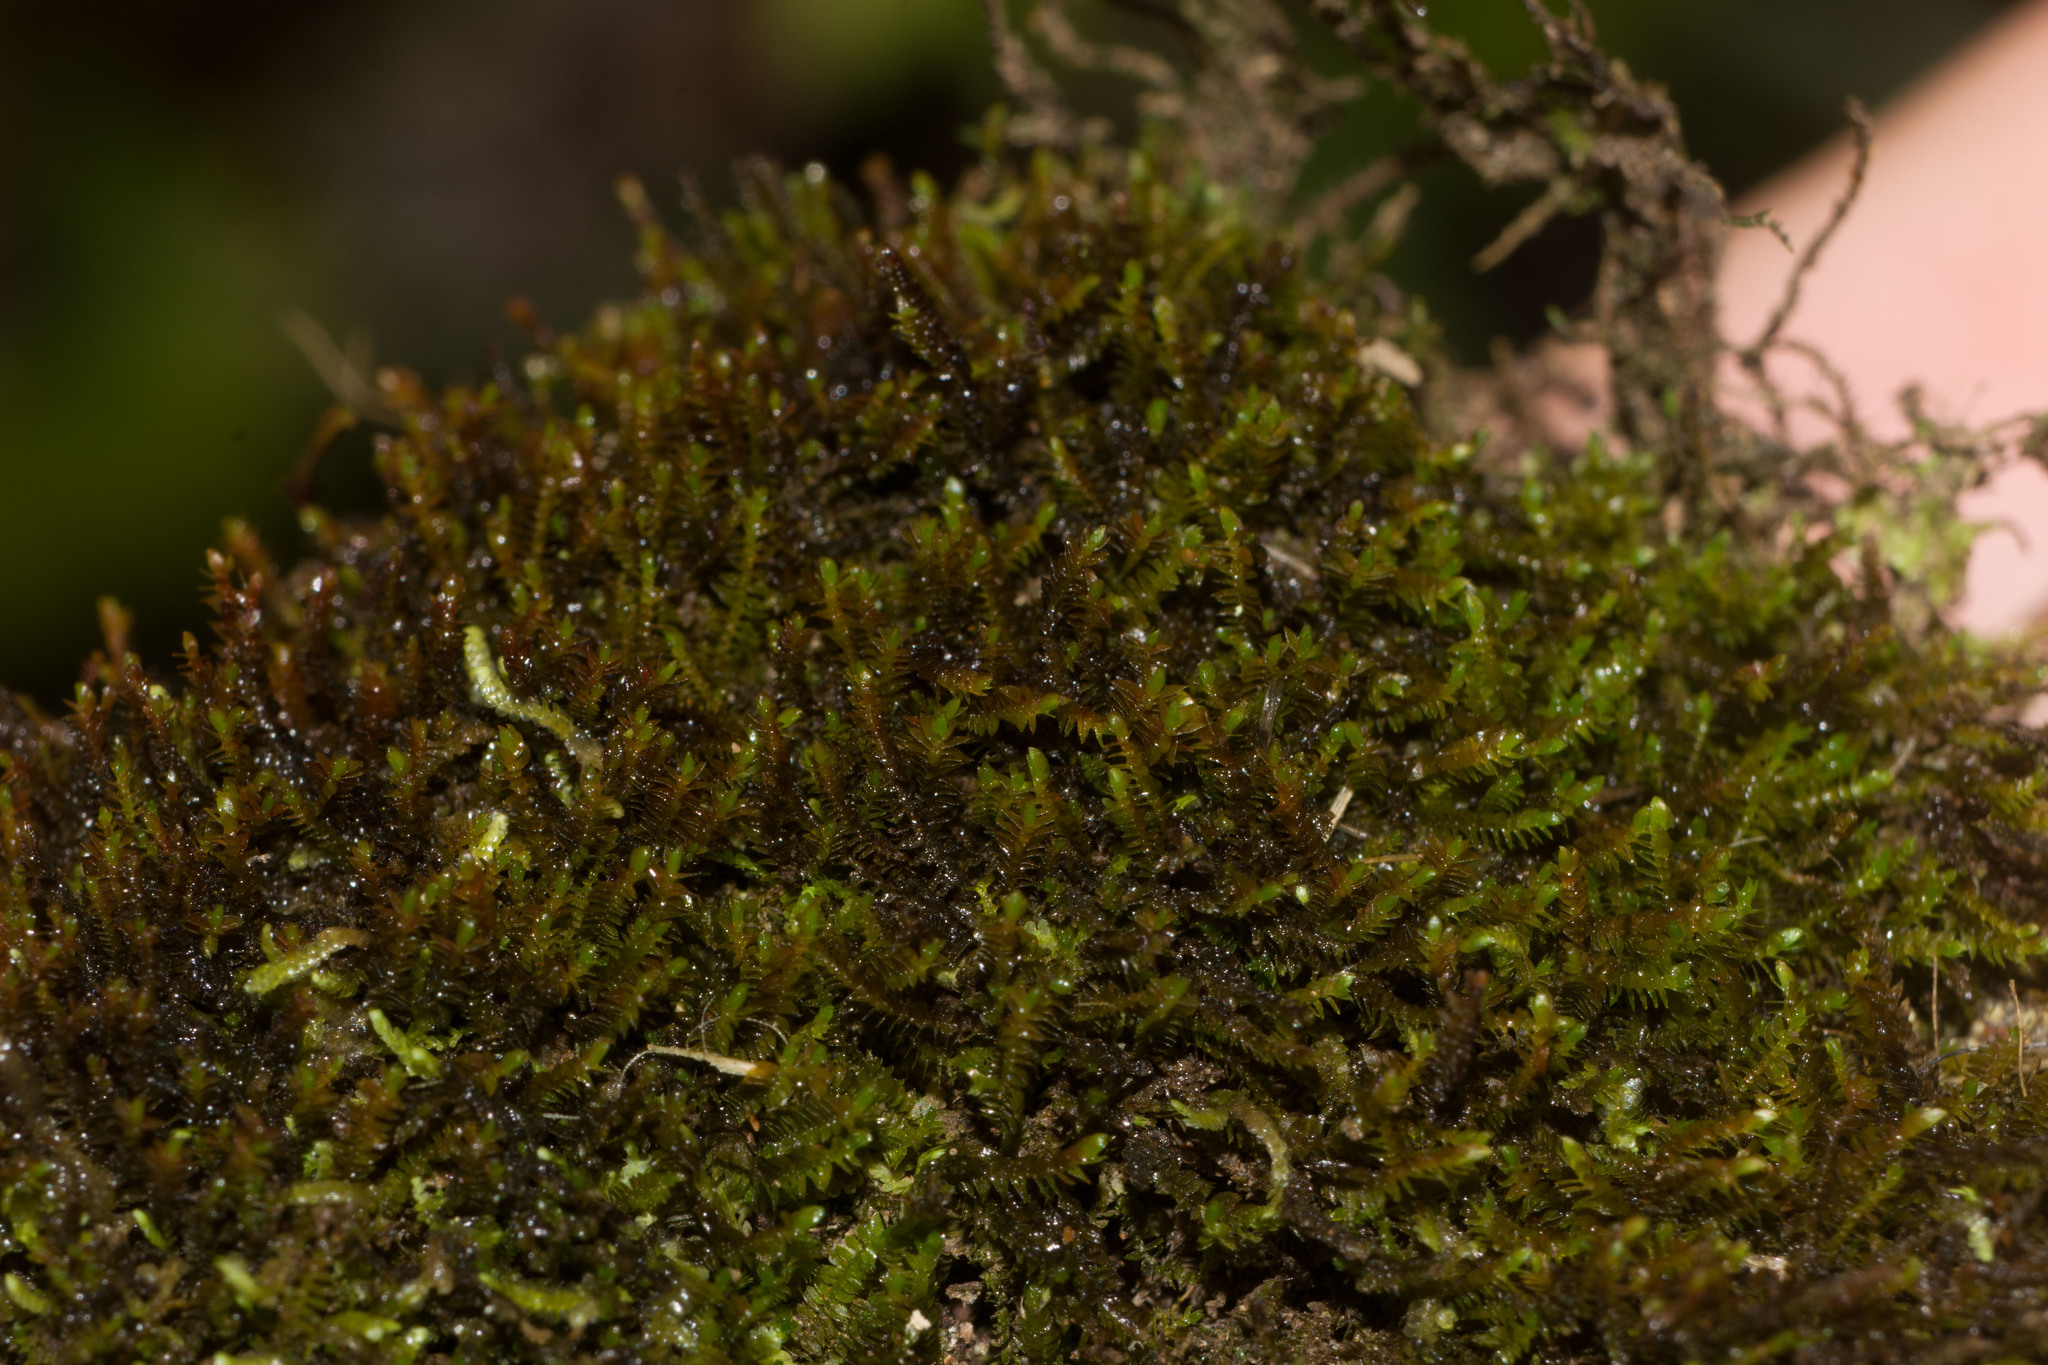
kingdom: Plantae
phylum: Marchantiophyta
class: Jungermanniopsida
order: Jungermanniales
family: Herbertaceae
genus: Herbertus
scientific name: Herbertus gracilis
